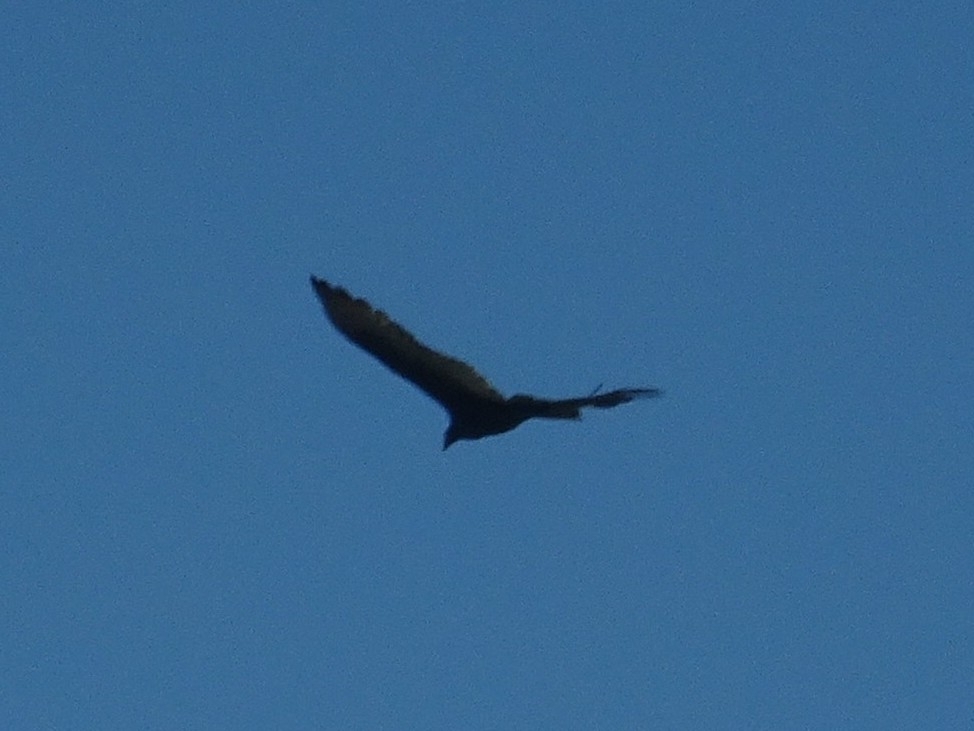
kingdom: Animalia
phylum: Chordata
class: Aves
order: Accipitriformes
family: Cathartidae
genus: Cathartes
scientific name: Cathartes aura
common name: Turkey vulture
